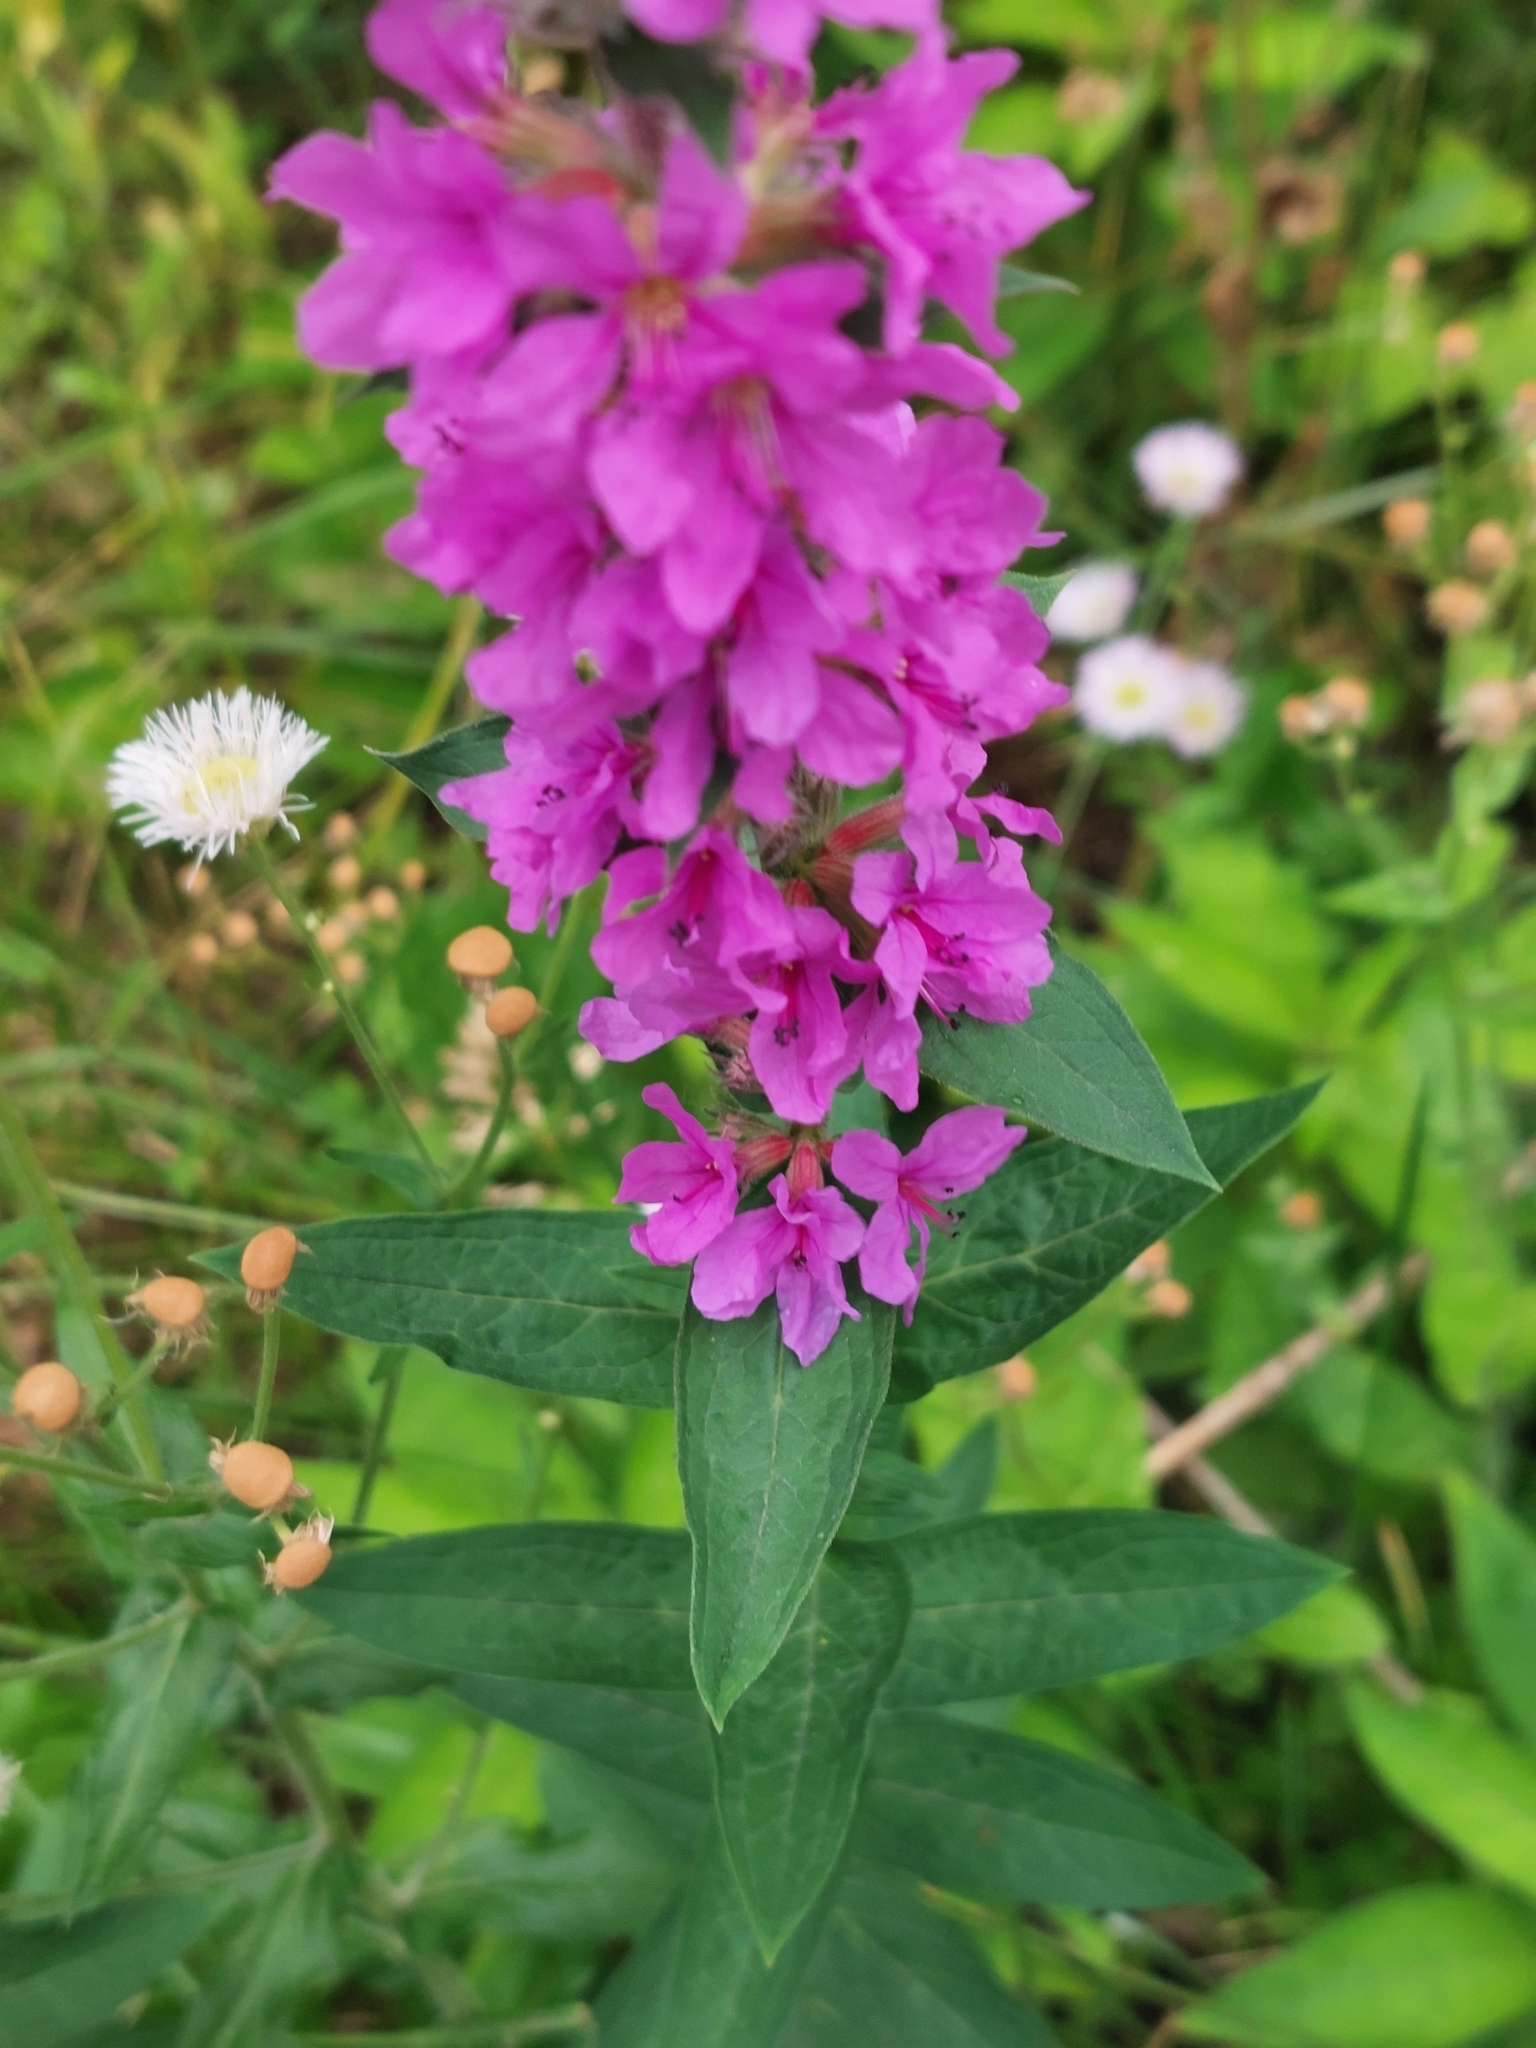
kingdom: Plantae
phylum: Tracheophyta
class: Magnoliopsida
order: Myrtales
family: Lythraceae
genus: Lythrum
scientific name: Lythrum salicaria
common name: Purple loosestrife
